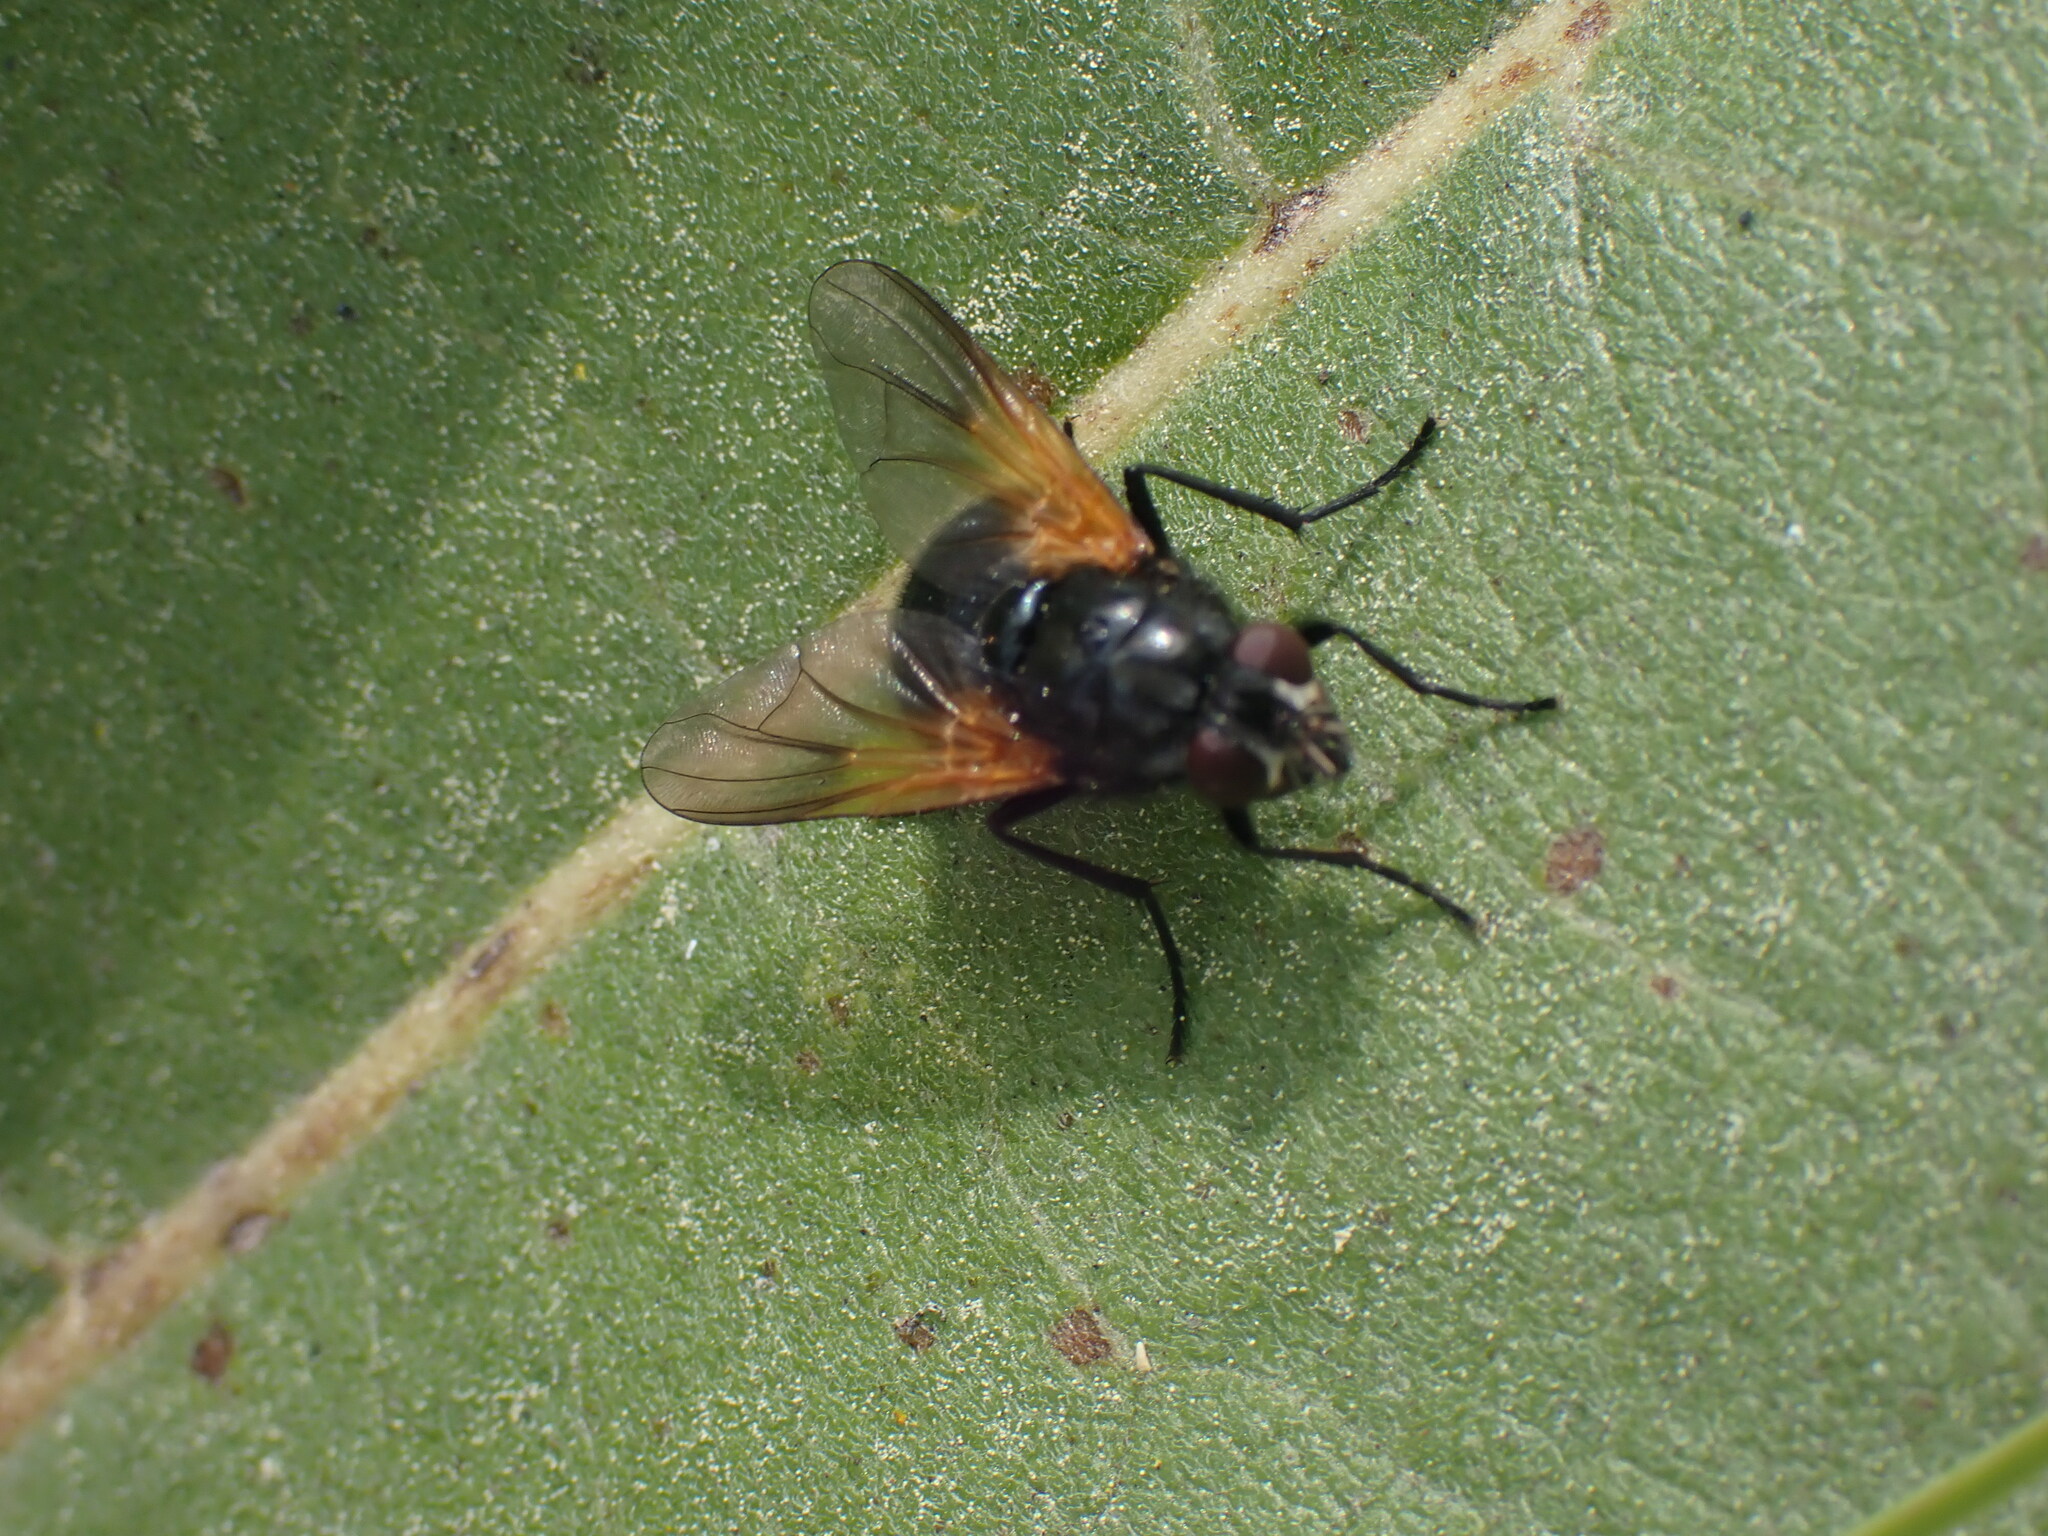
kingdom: Animalia
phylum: Arthropoda
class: Insecta
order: Diptera
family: Muscidae
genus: Mesembrina
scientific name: Mesembrina latreillii
